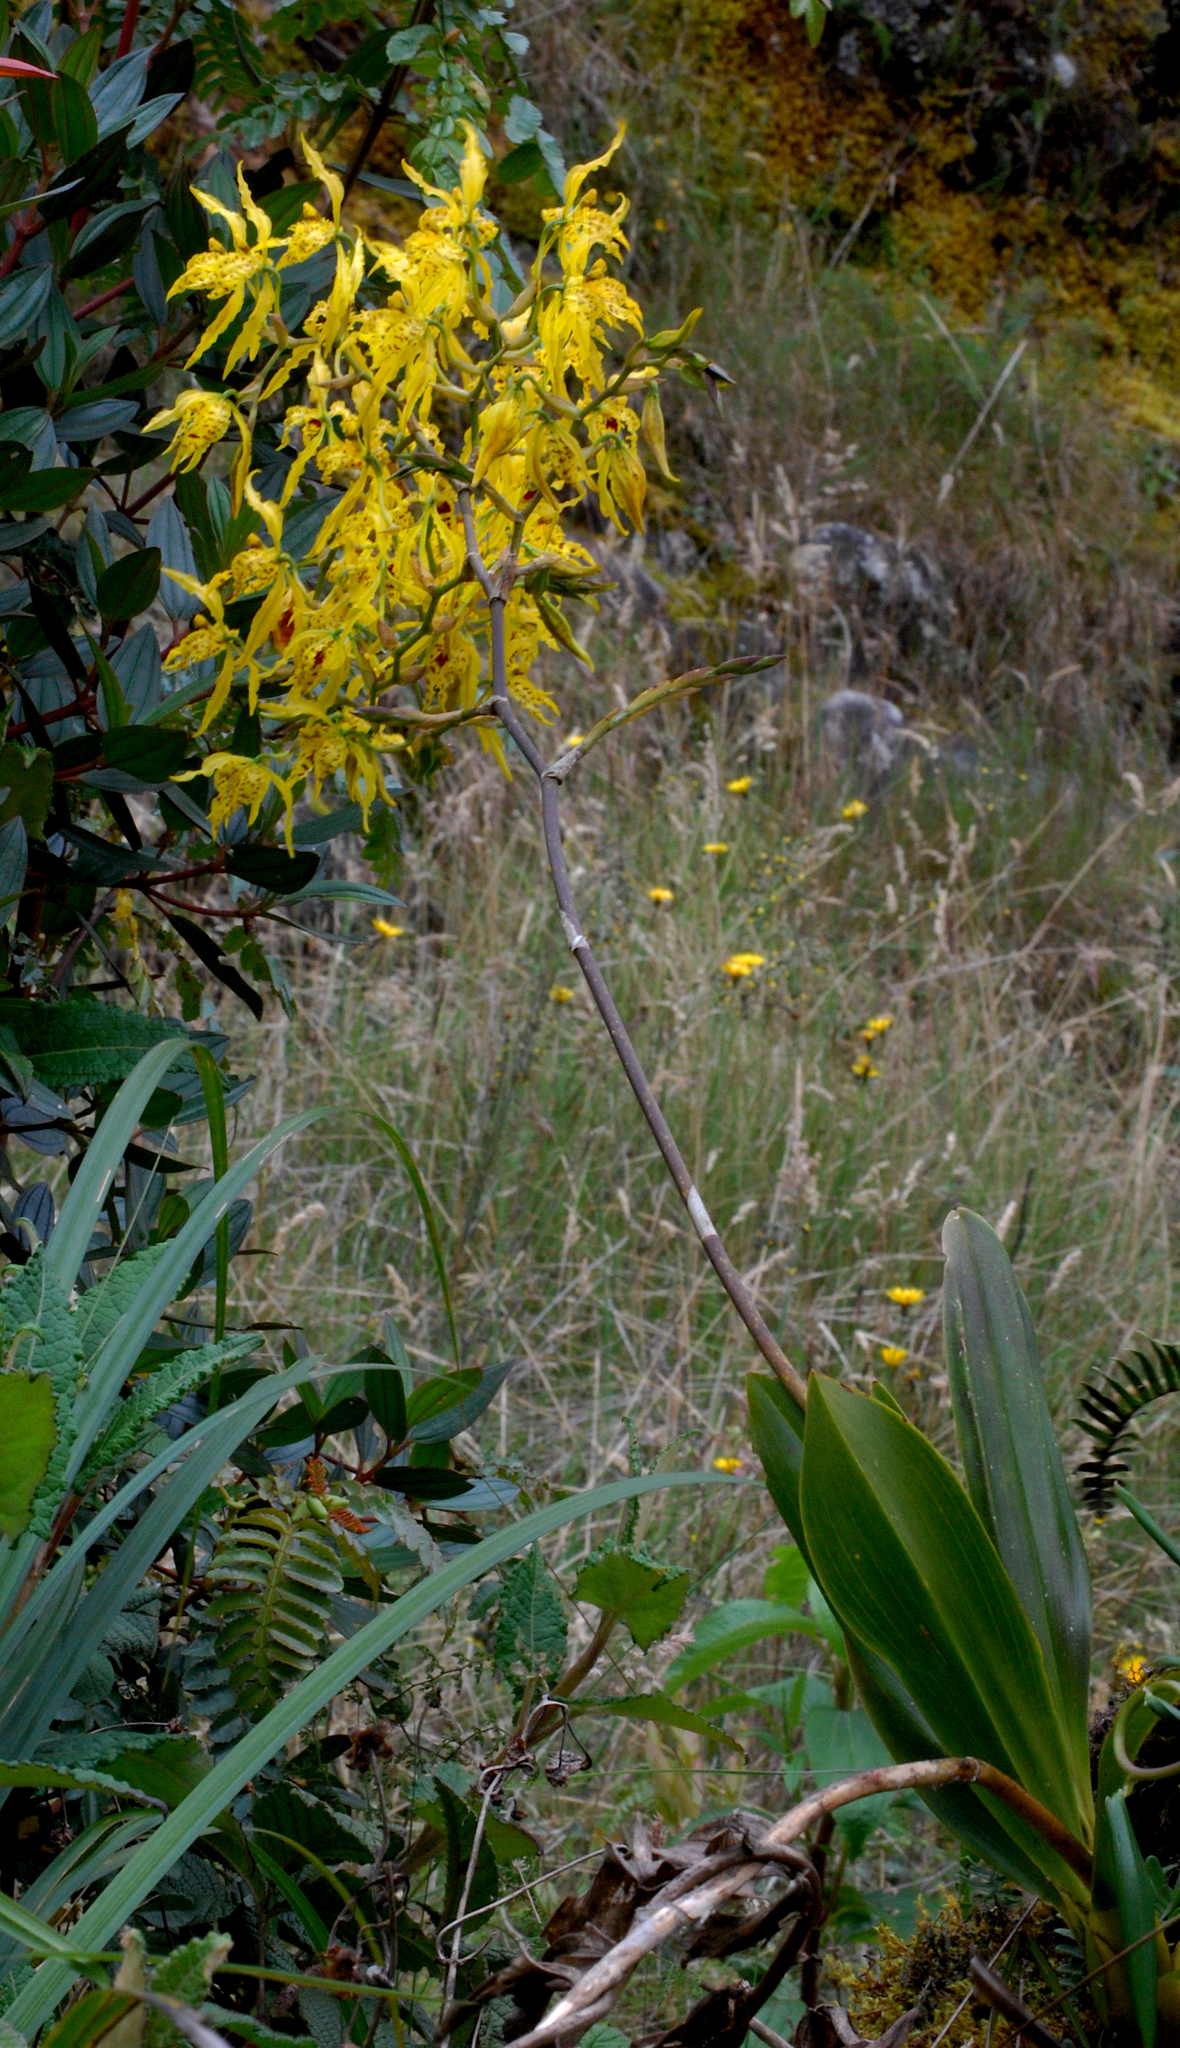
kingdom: Plantae
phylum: Tracheophyta
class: Liliopsida
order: Asparagales
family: Orchidaceae
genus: Cyrtochilum
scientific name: Cyrtochilum pardinum
